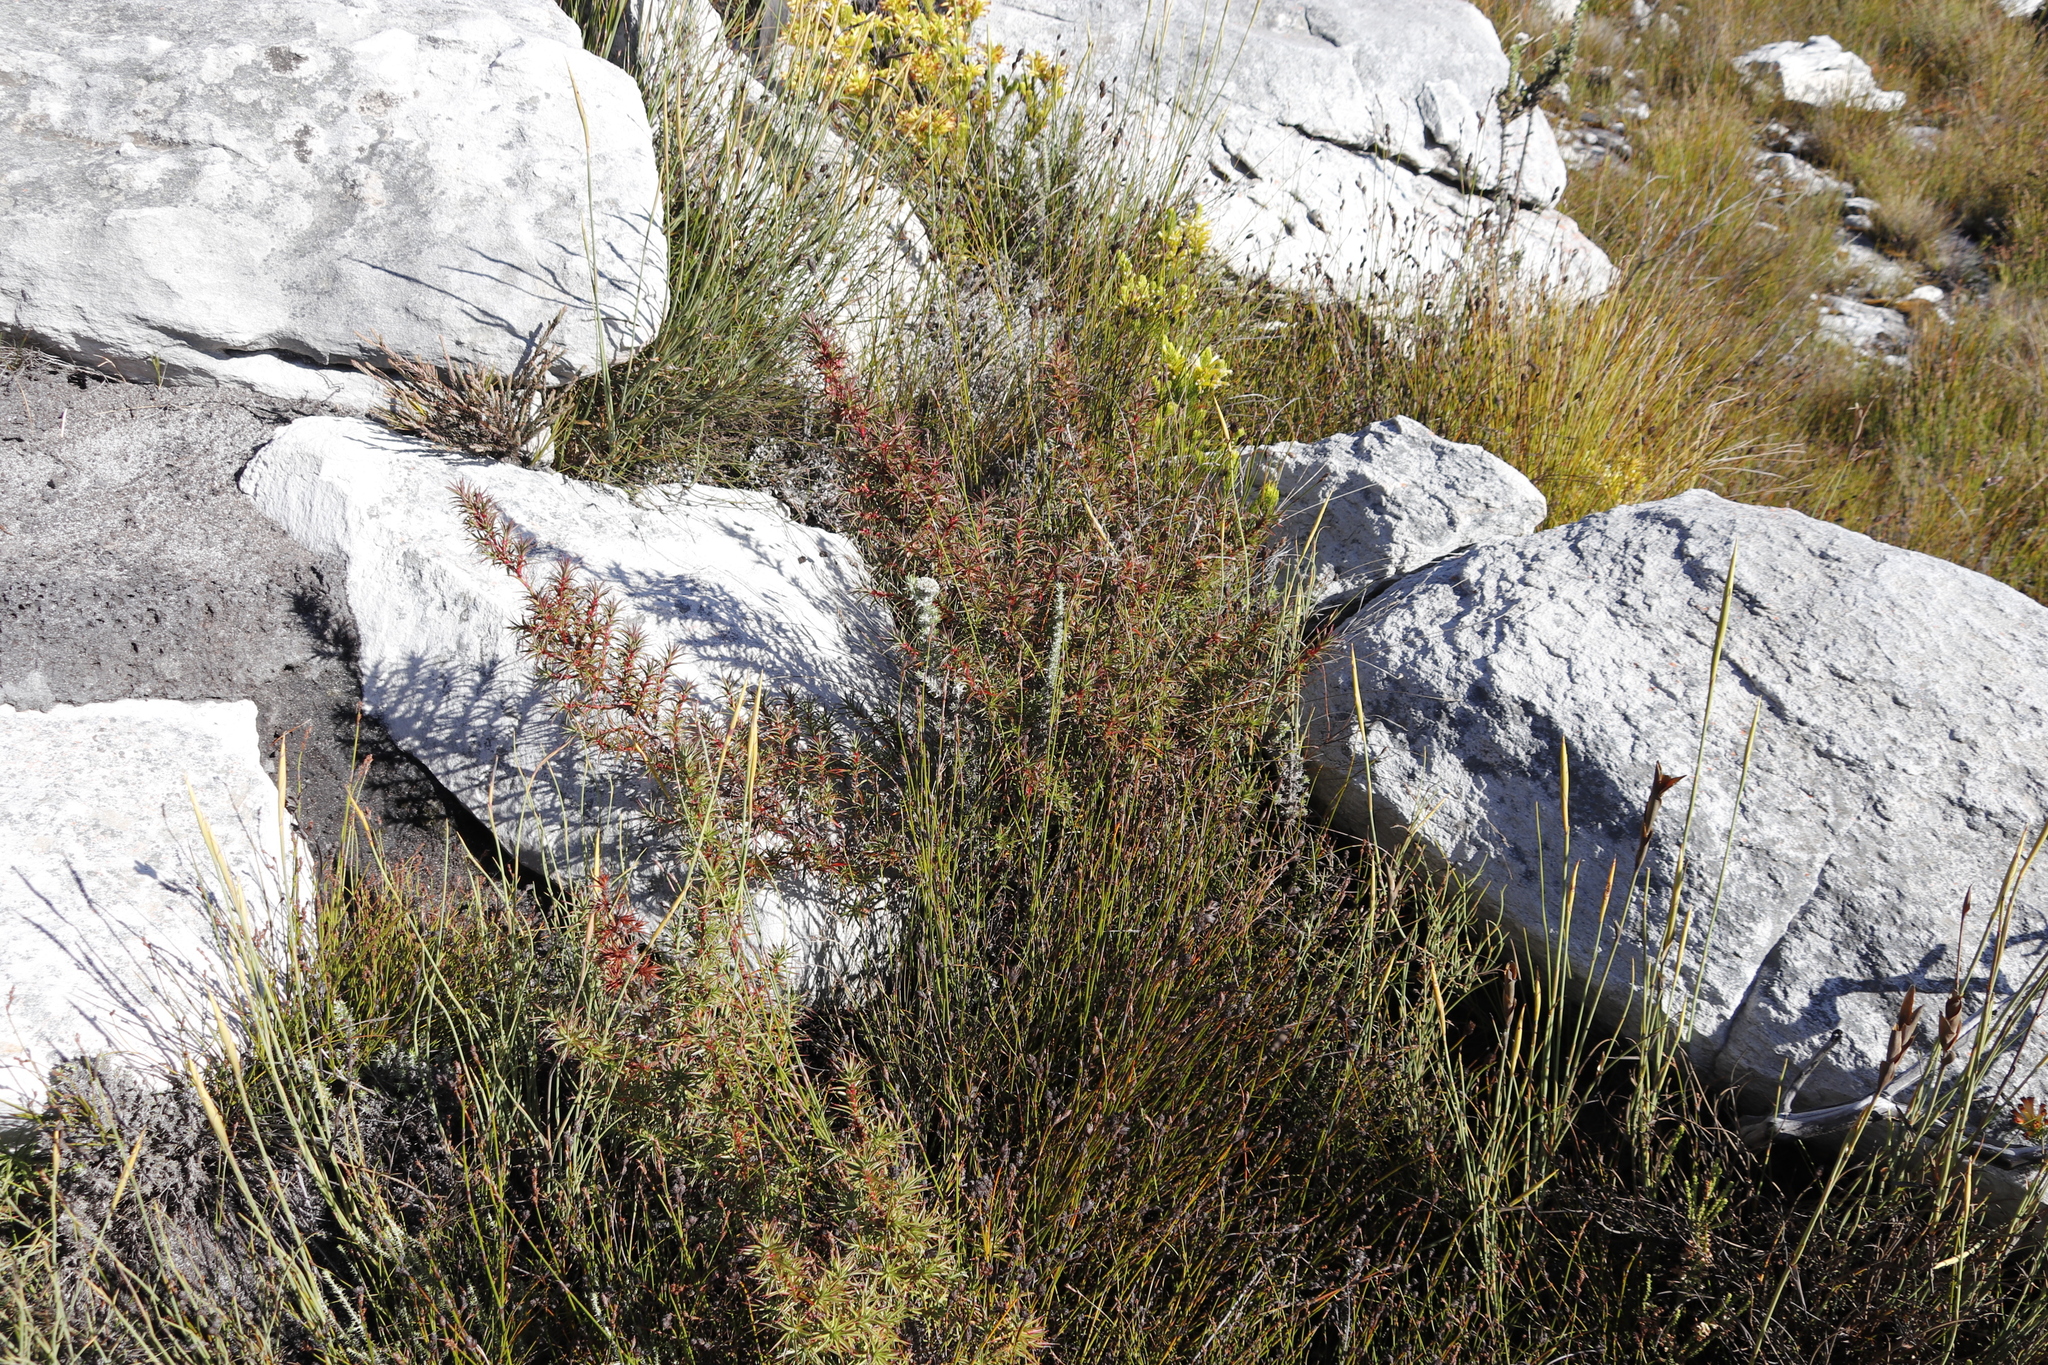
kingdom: Plantae
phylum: Tracheophyta
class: Magnoliopsida
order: Rosales
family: Rosaceae
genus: Cliffortia
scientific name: Cliffortia dregeana
